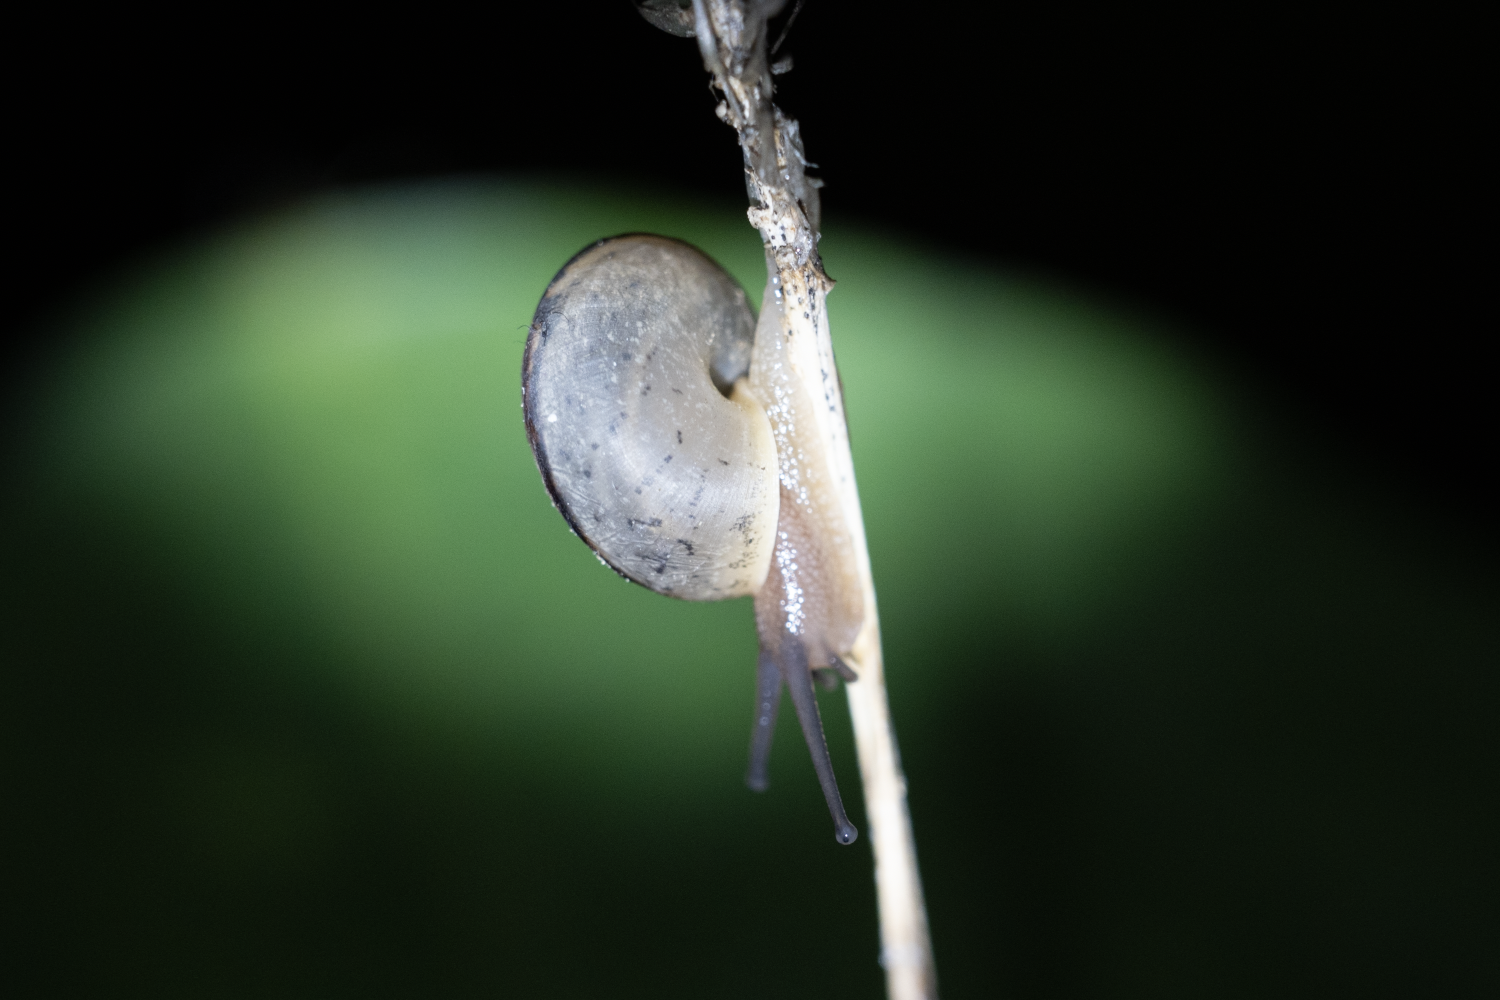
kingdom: Animalia
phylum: Mollusca
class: Gastropoda
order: Stylommatophora
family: Camaenidae
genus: Bradybaena
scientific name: Bradybaena similaris
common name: Asian trampsnail
